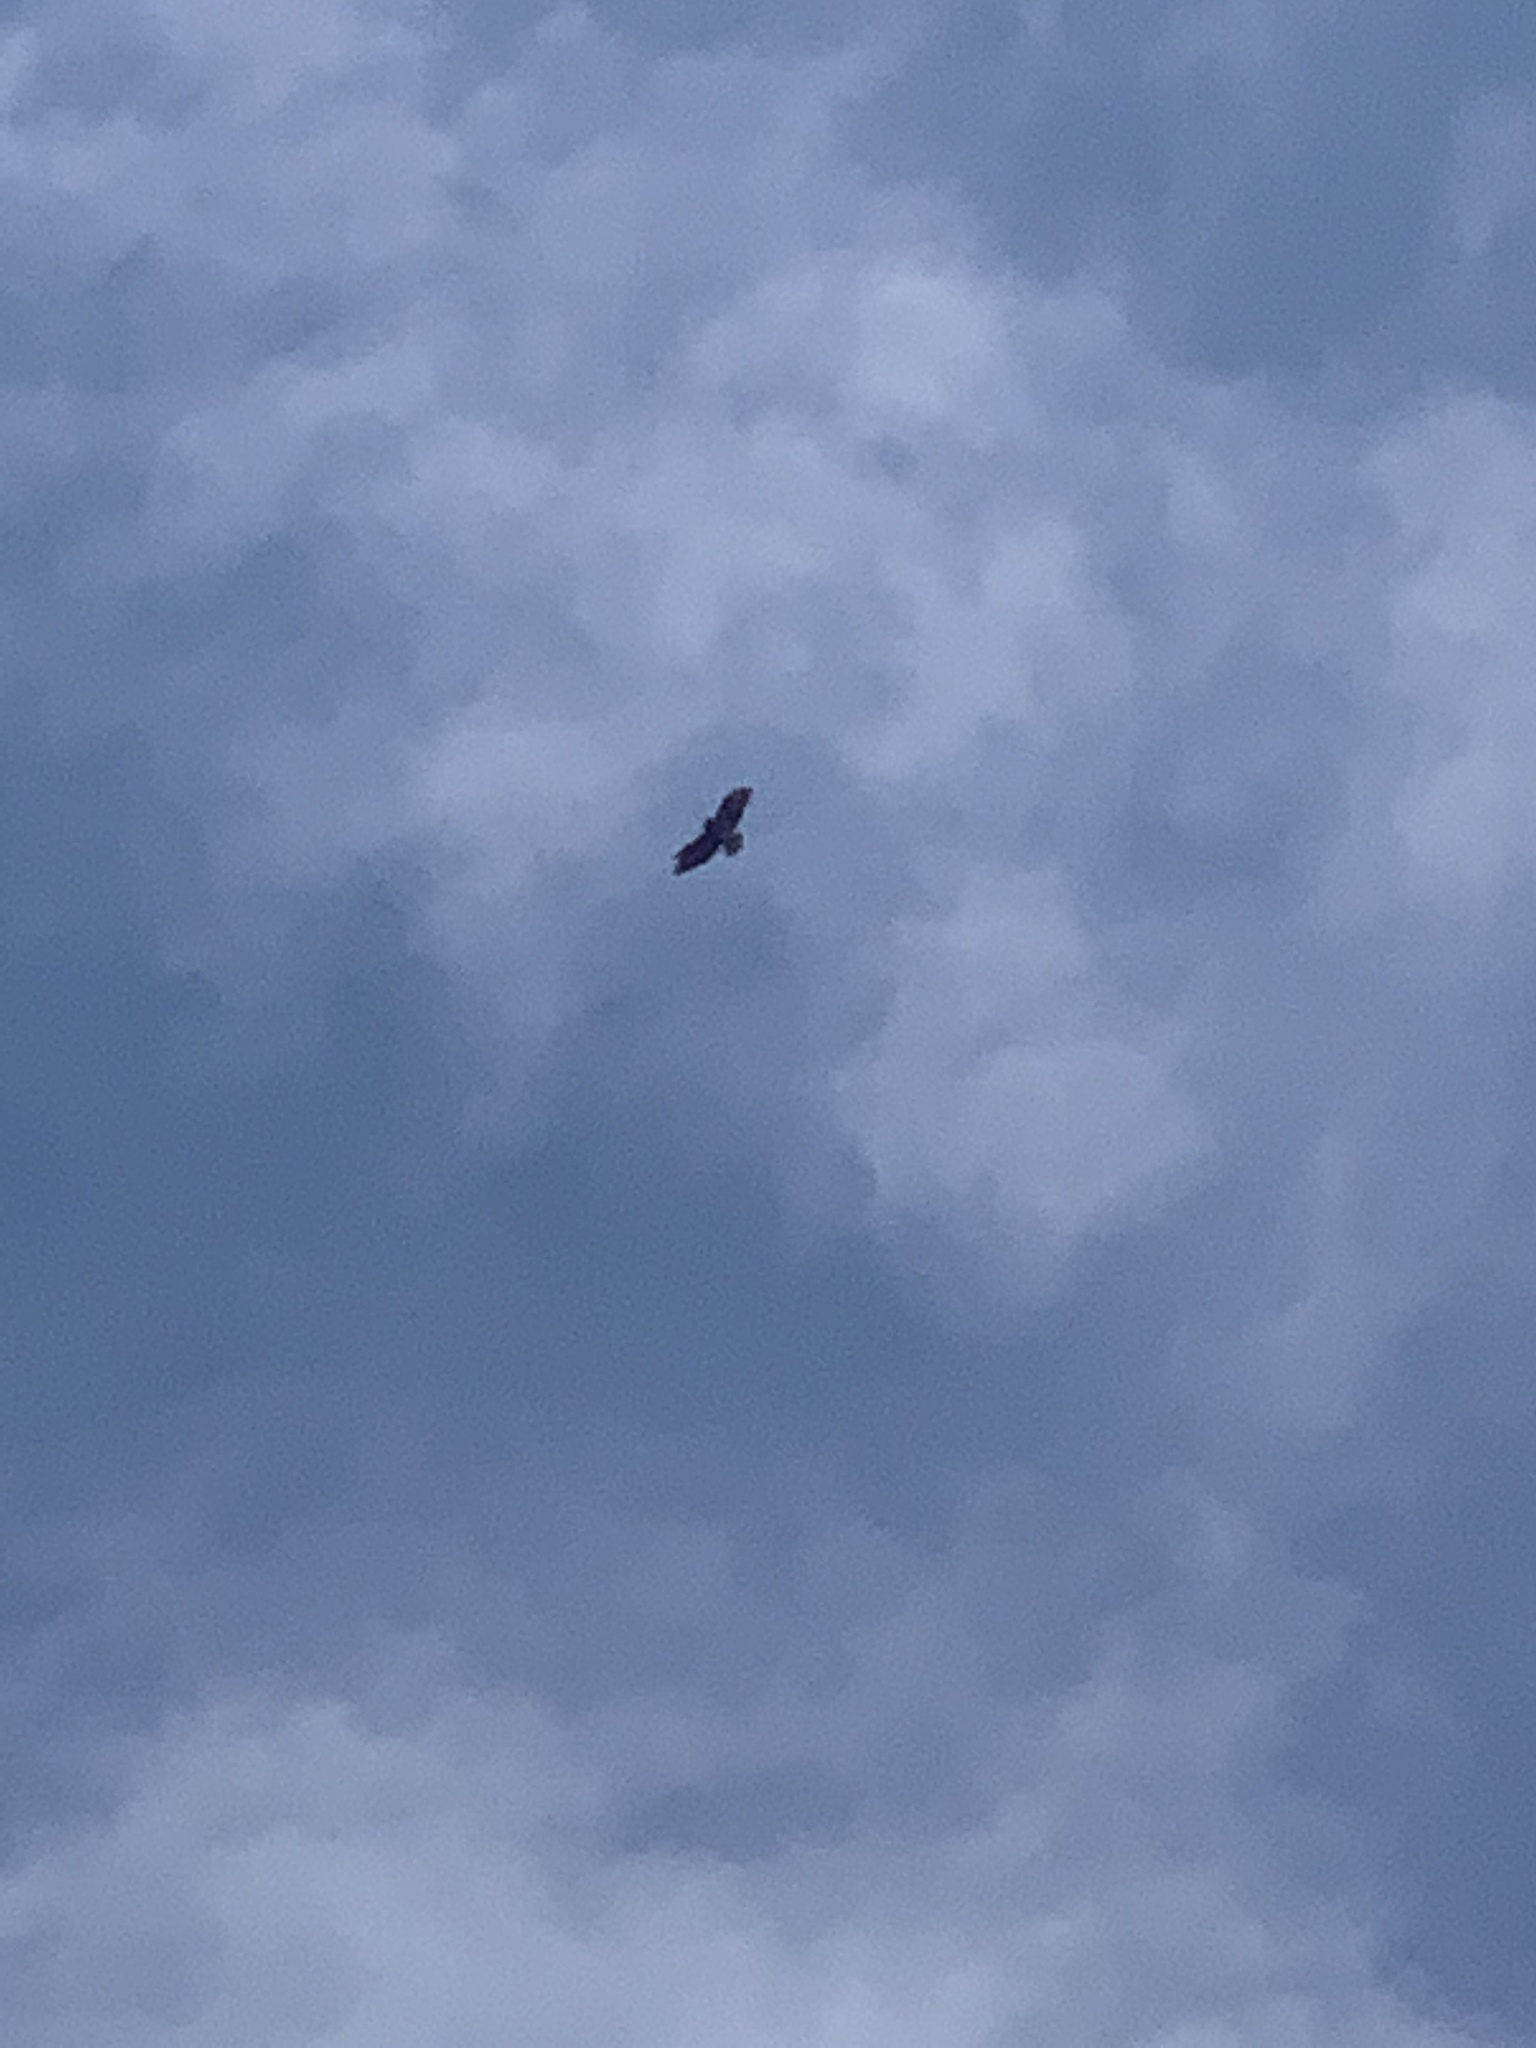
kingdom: Animalia
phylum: Chordata
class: Aves
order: Accipitriformes
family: Accipitridae
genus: Buteo
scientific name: Buteo buteo
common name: Common buzzard
